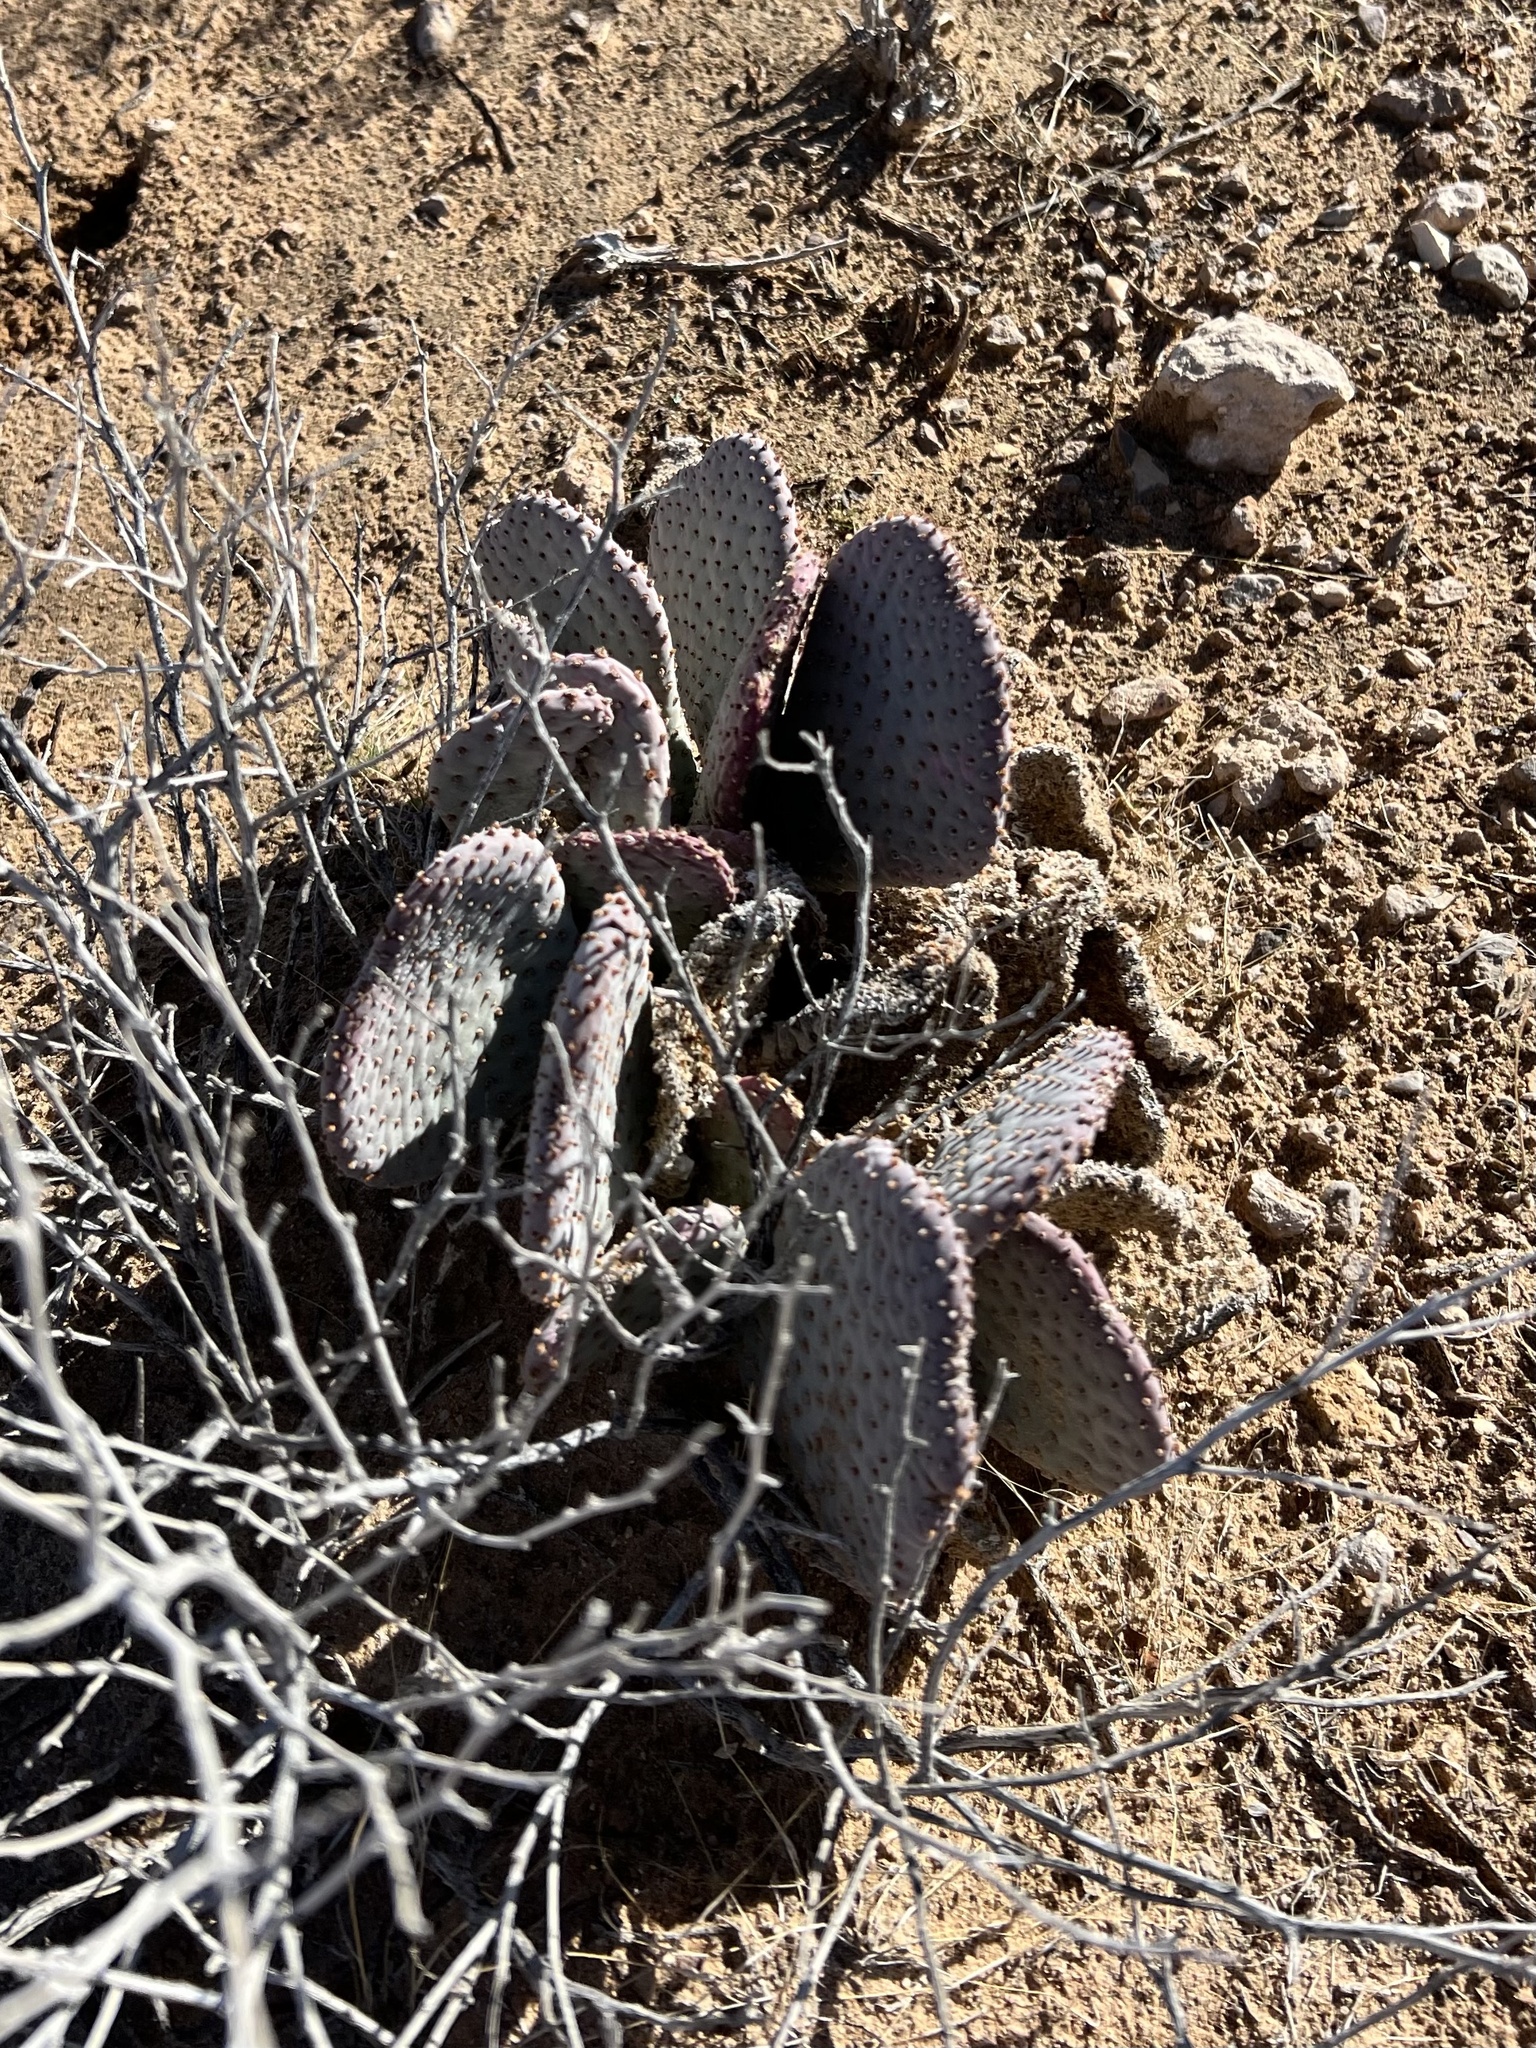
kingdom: Plantae
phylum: Tracheophyta
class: Magnoliopsida
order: Caryophyllales
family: Cactaceae
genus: Opuntia
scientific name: Opuntia basilaris
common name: Beavertail prickly-pear
